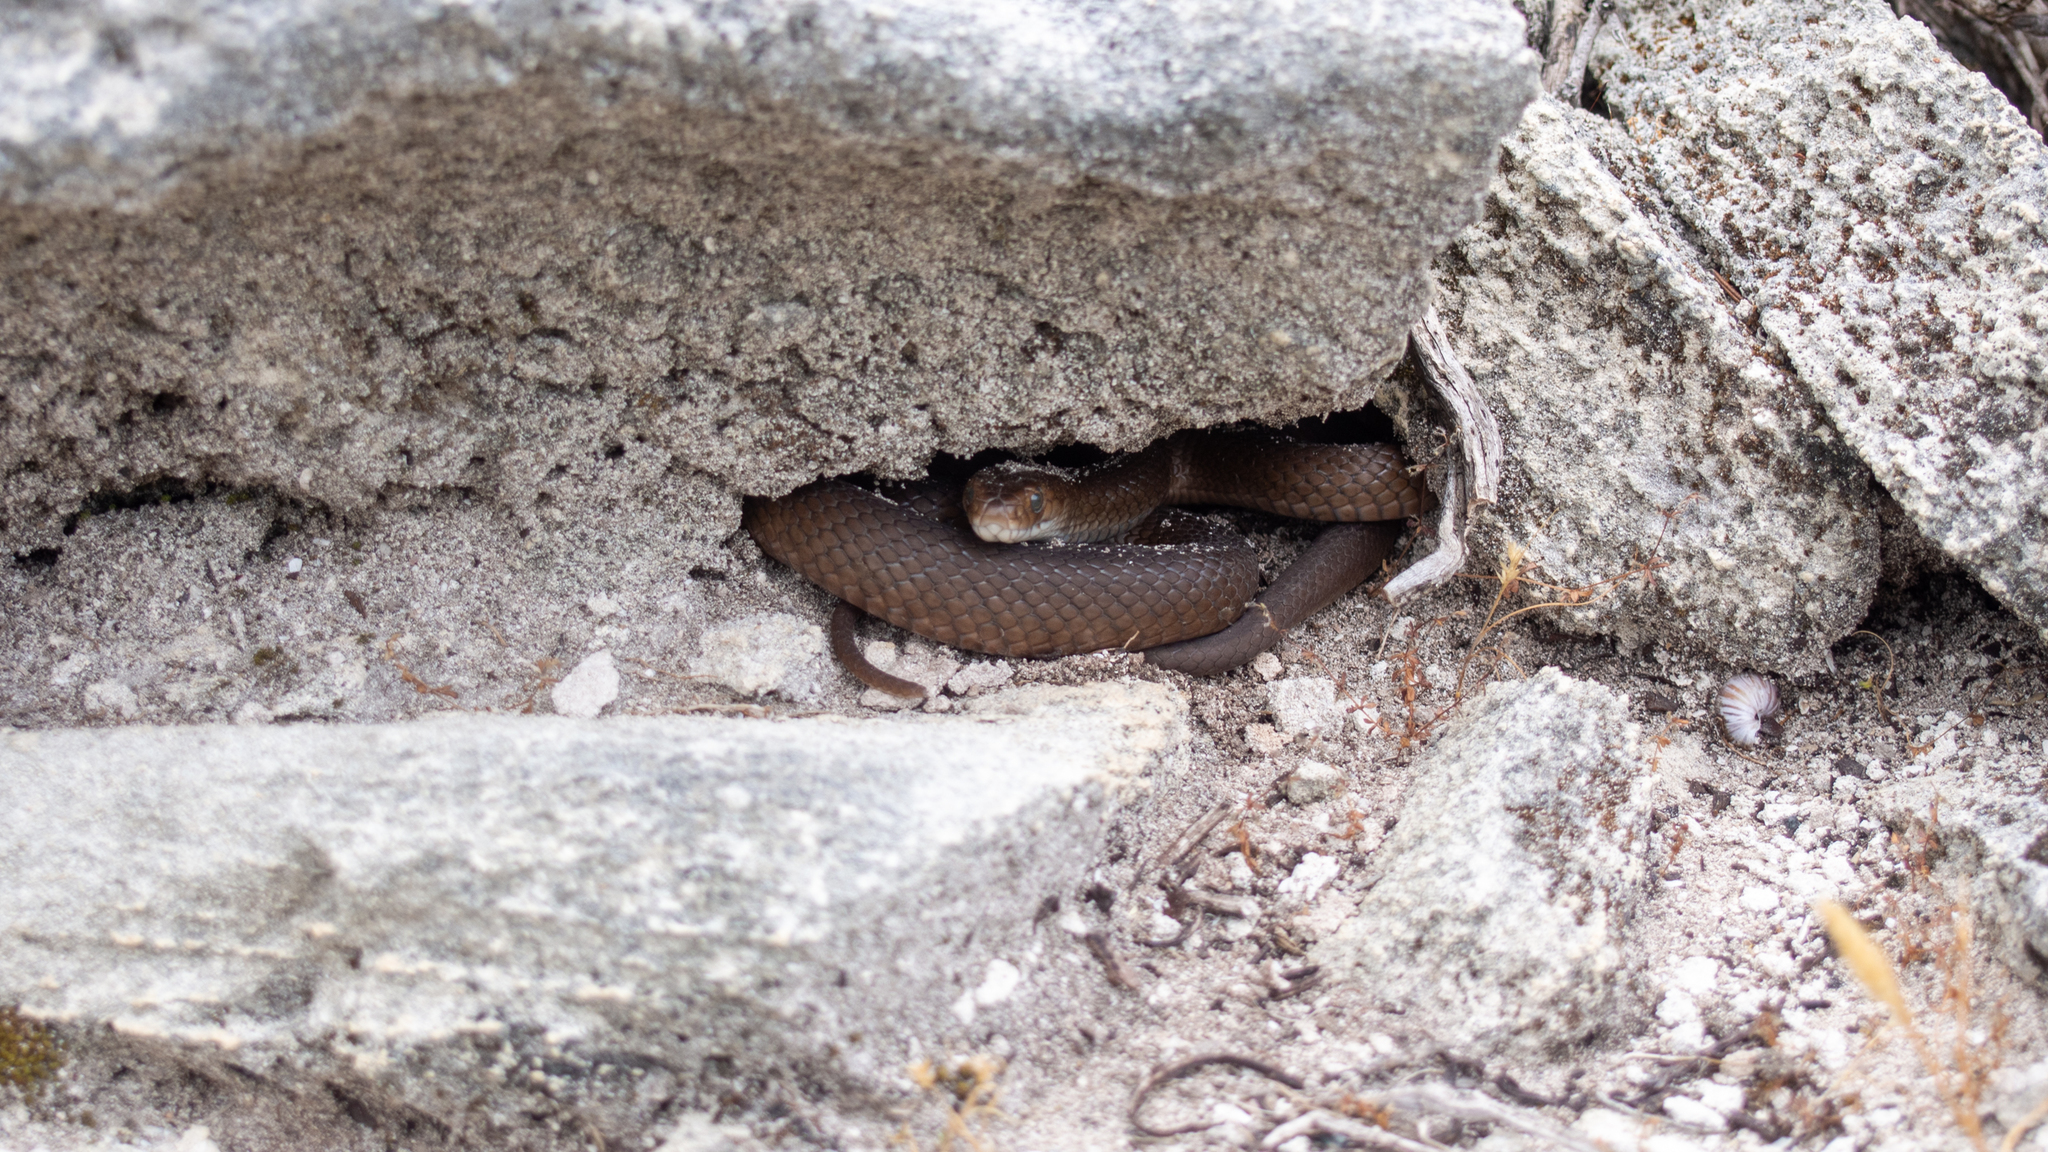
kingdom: Animalia
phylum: Chordata
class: Squamata
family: Elapidae
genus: Pseudonaja
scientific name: Pseudonaja affinis
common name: Dugite
